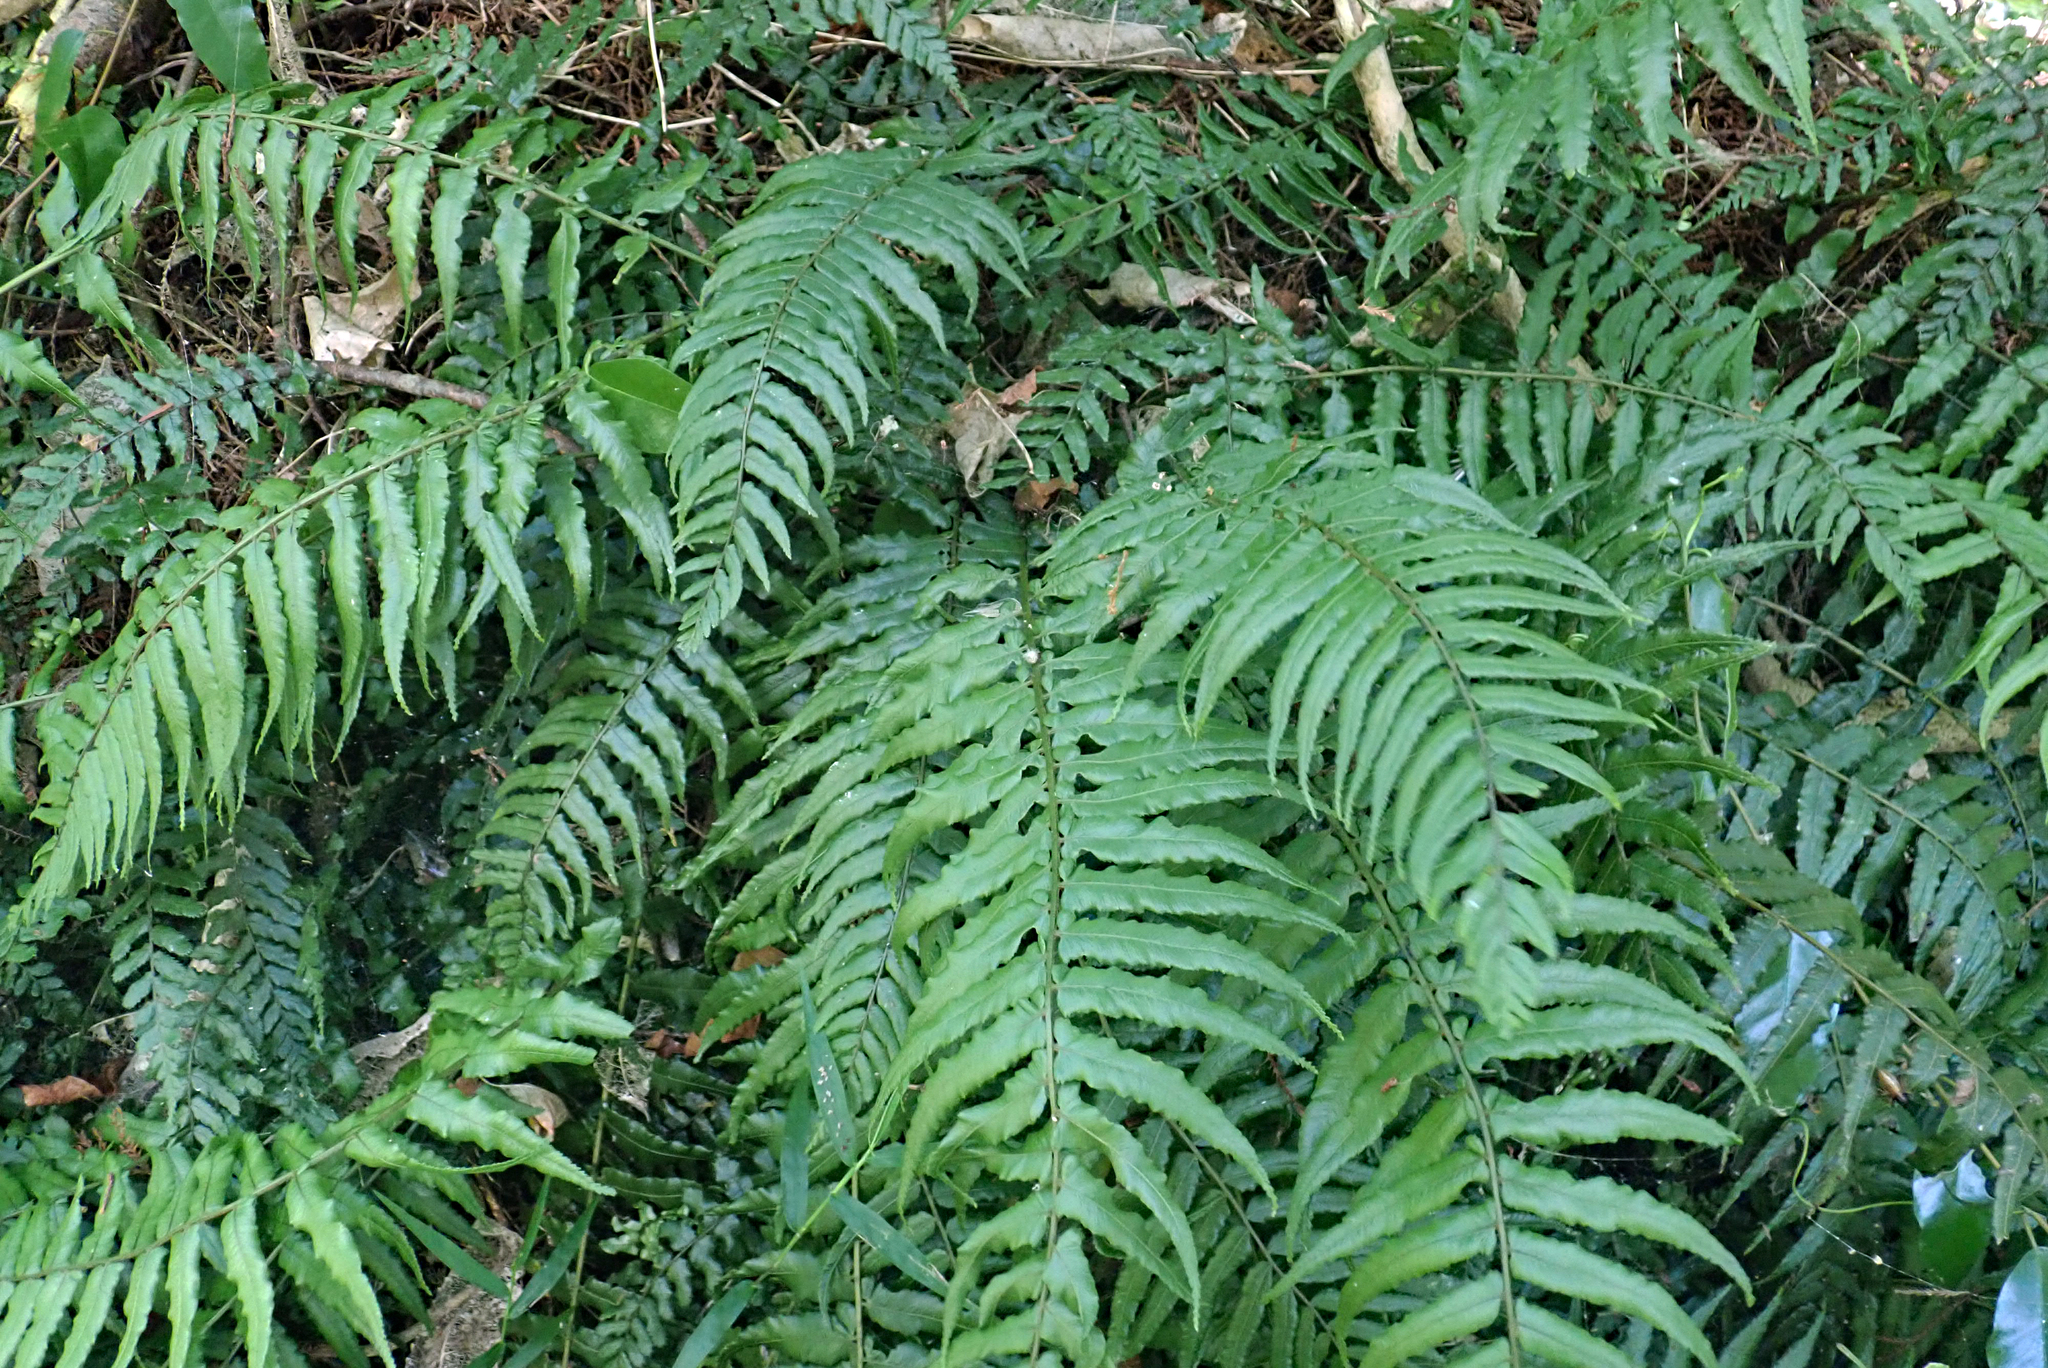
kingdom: Plantae
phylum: Tracheophyta
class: Polypodiopsida
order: Polypodiales
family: Blechnaceae
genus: Icarus
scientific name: Icarus filiformis
